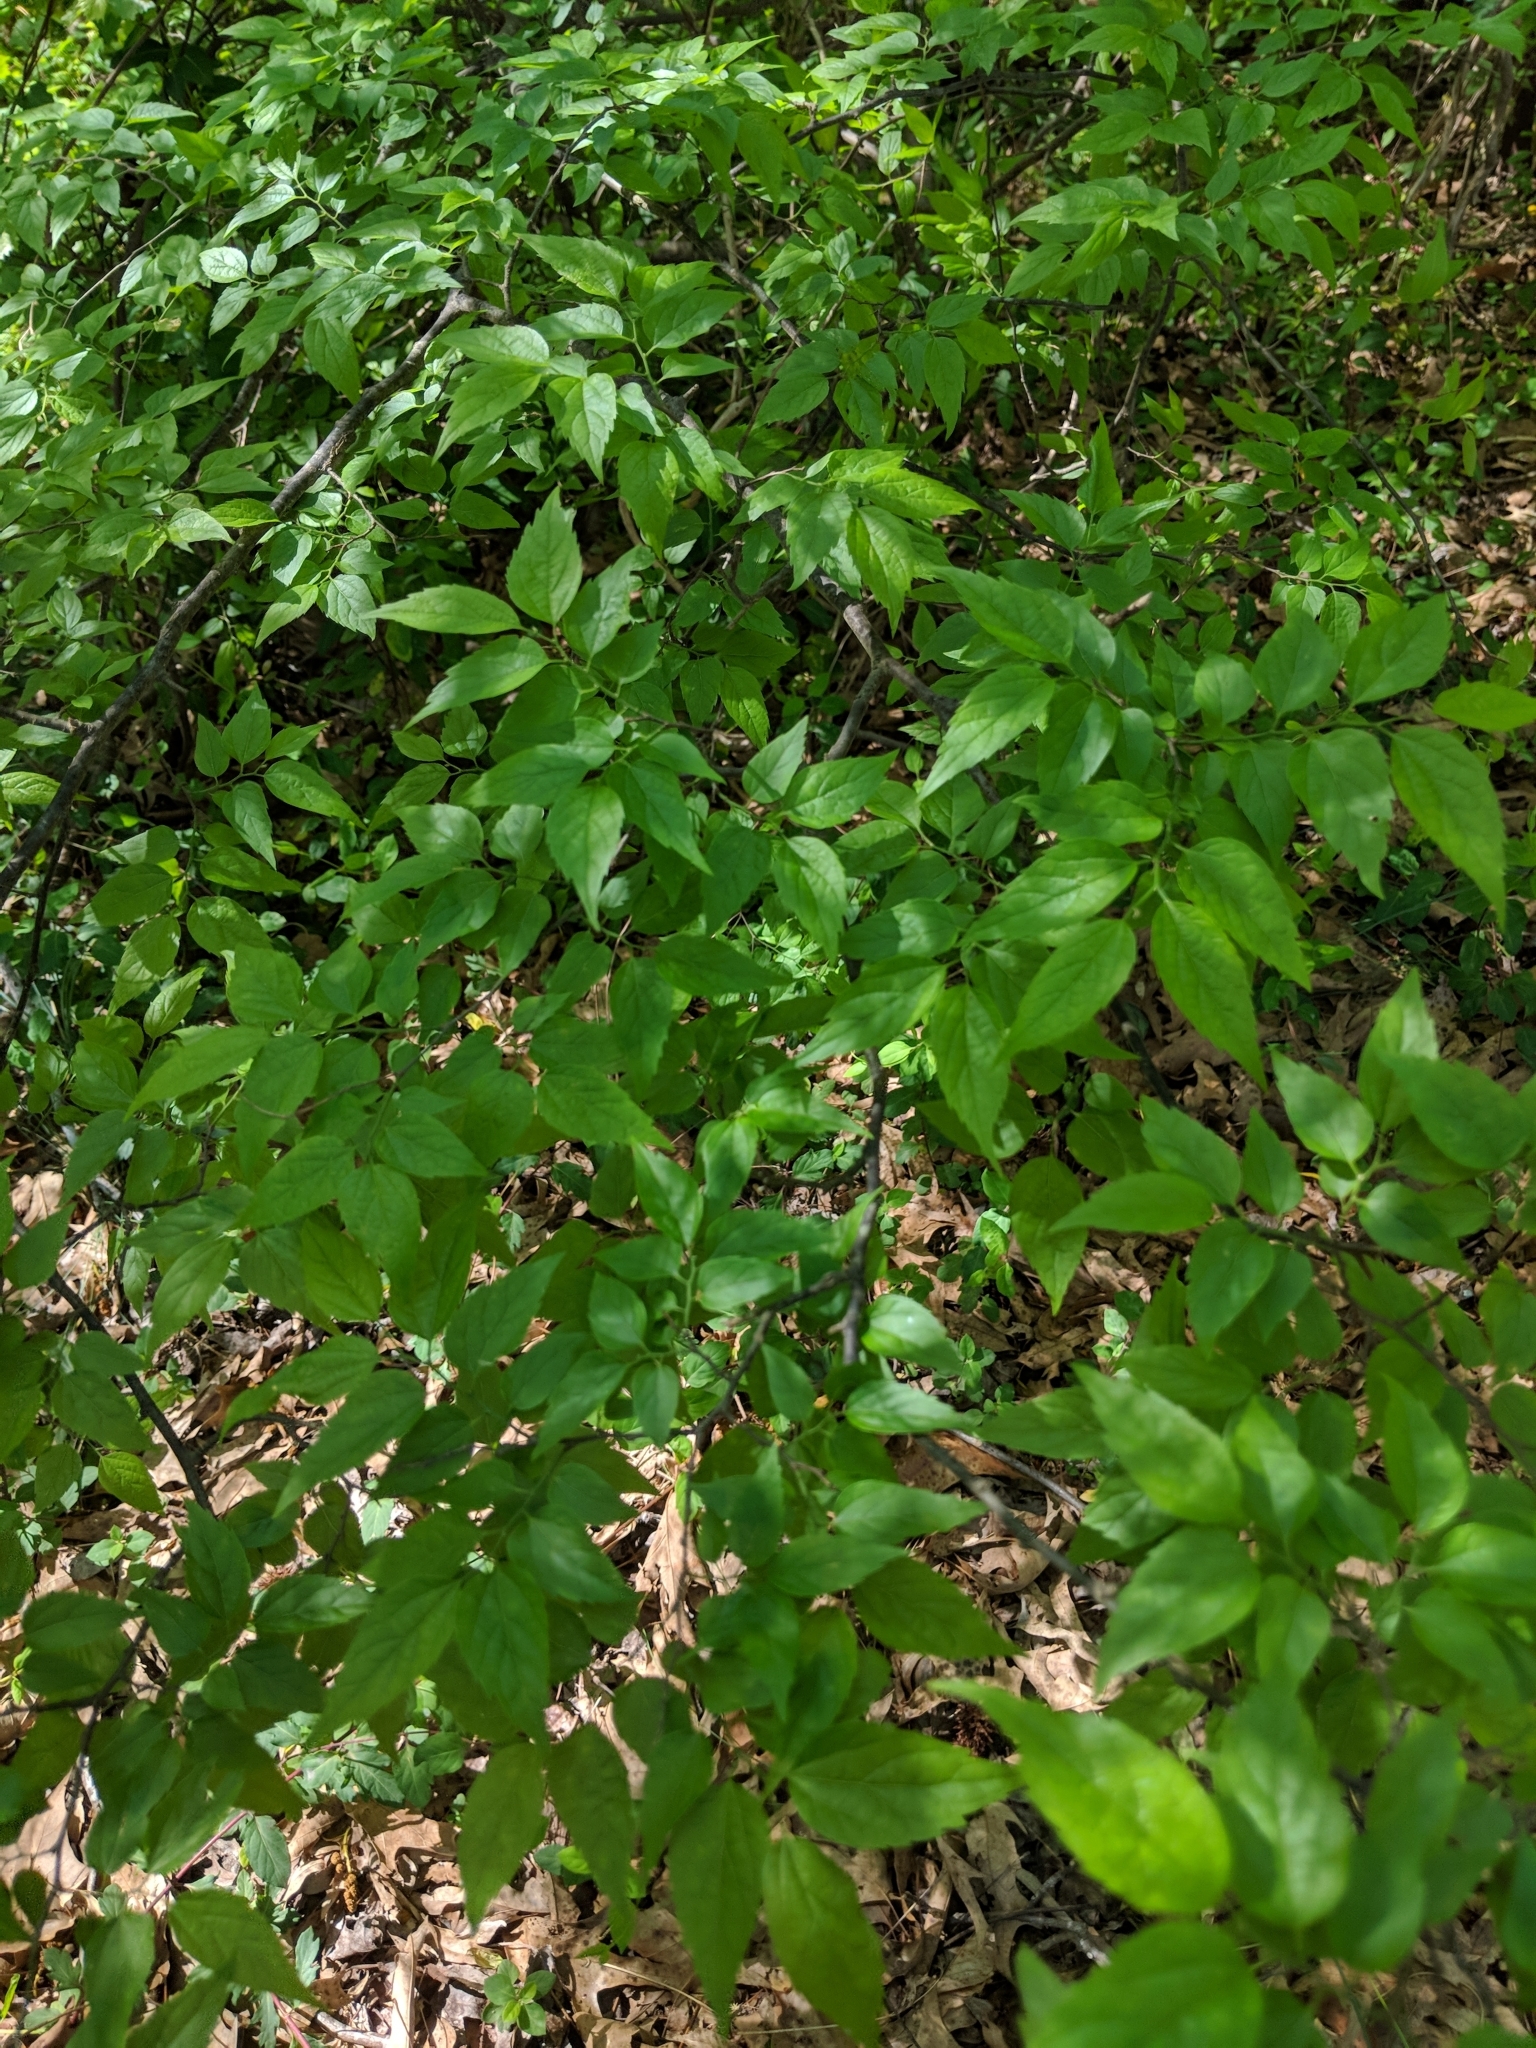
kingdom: Plantae
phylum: Tracheophyta
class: Magnoliopsida
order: Rosales
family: Cannabaceae
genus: Celtis
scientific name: Celtis laevigata
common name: Sugarberry
